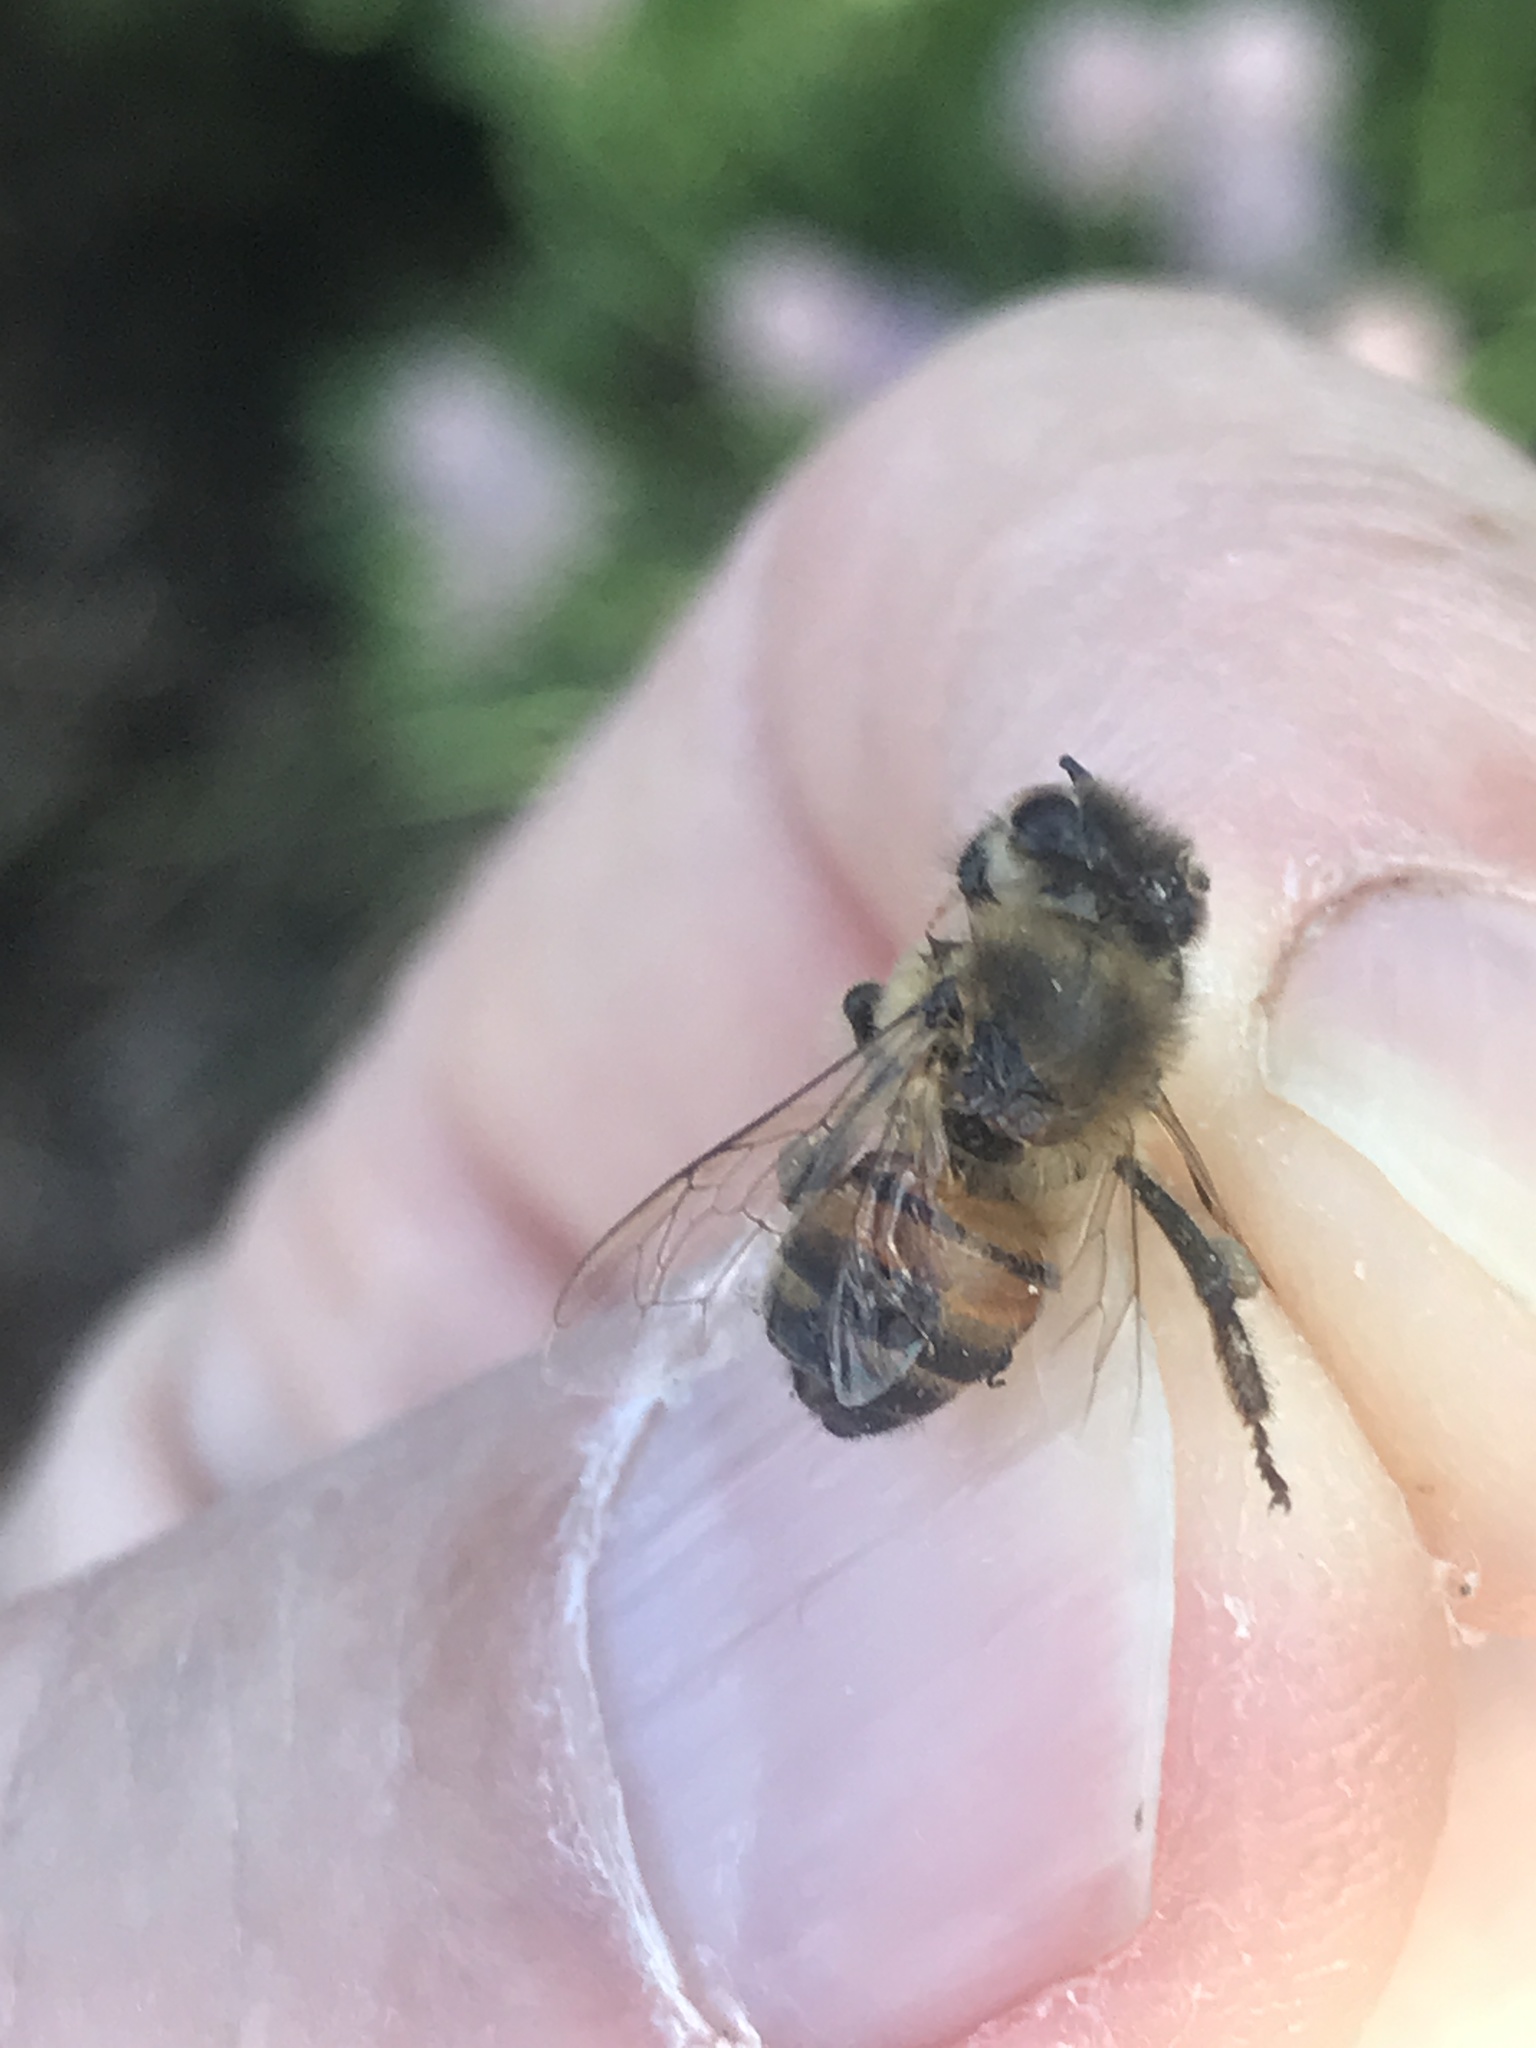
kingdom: Animalia
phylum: Arthropoda
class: Insecta
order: Hymenoptera
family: Apidae
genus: Apis
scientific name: Apis mellifera
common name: Honey bee
